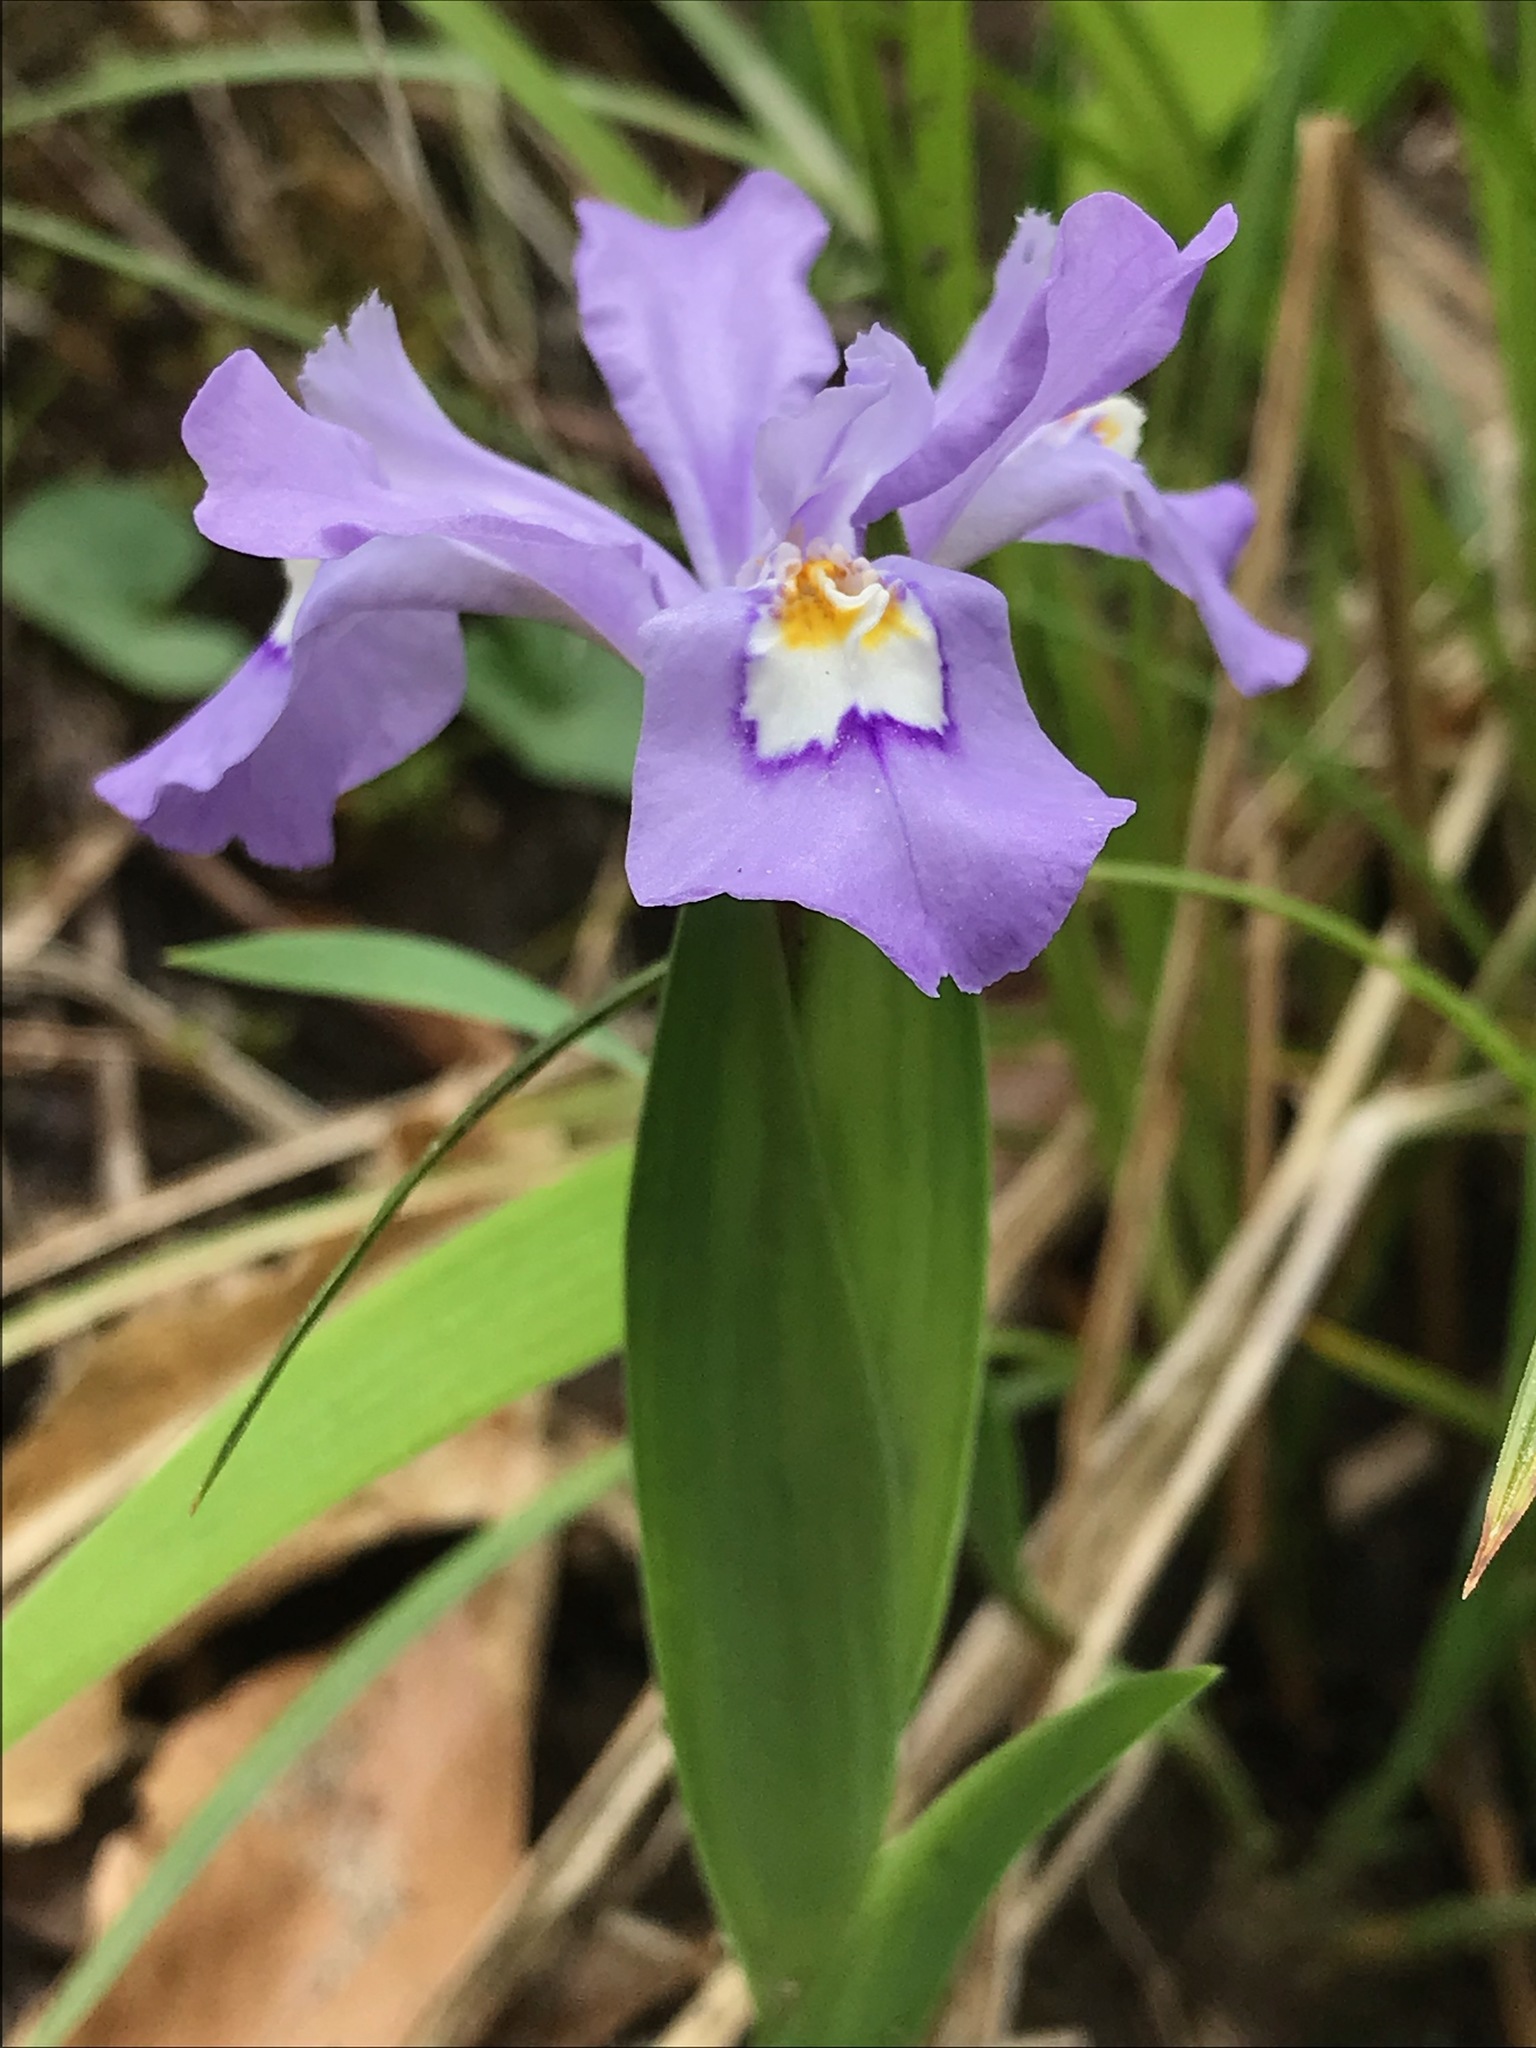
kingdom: Plantae
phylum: Tracheophyta
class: Liliopsida
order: Asparagales
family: Iridaceae
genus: Iris
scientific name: Iris cristata
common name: Crested iris
